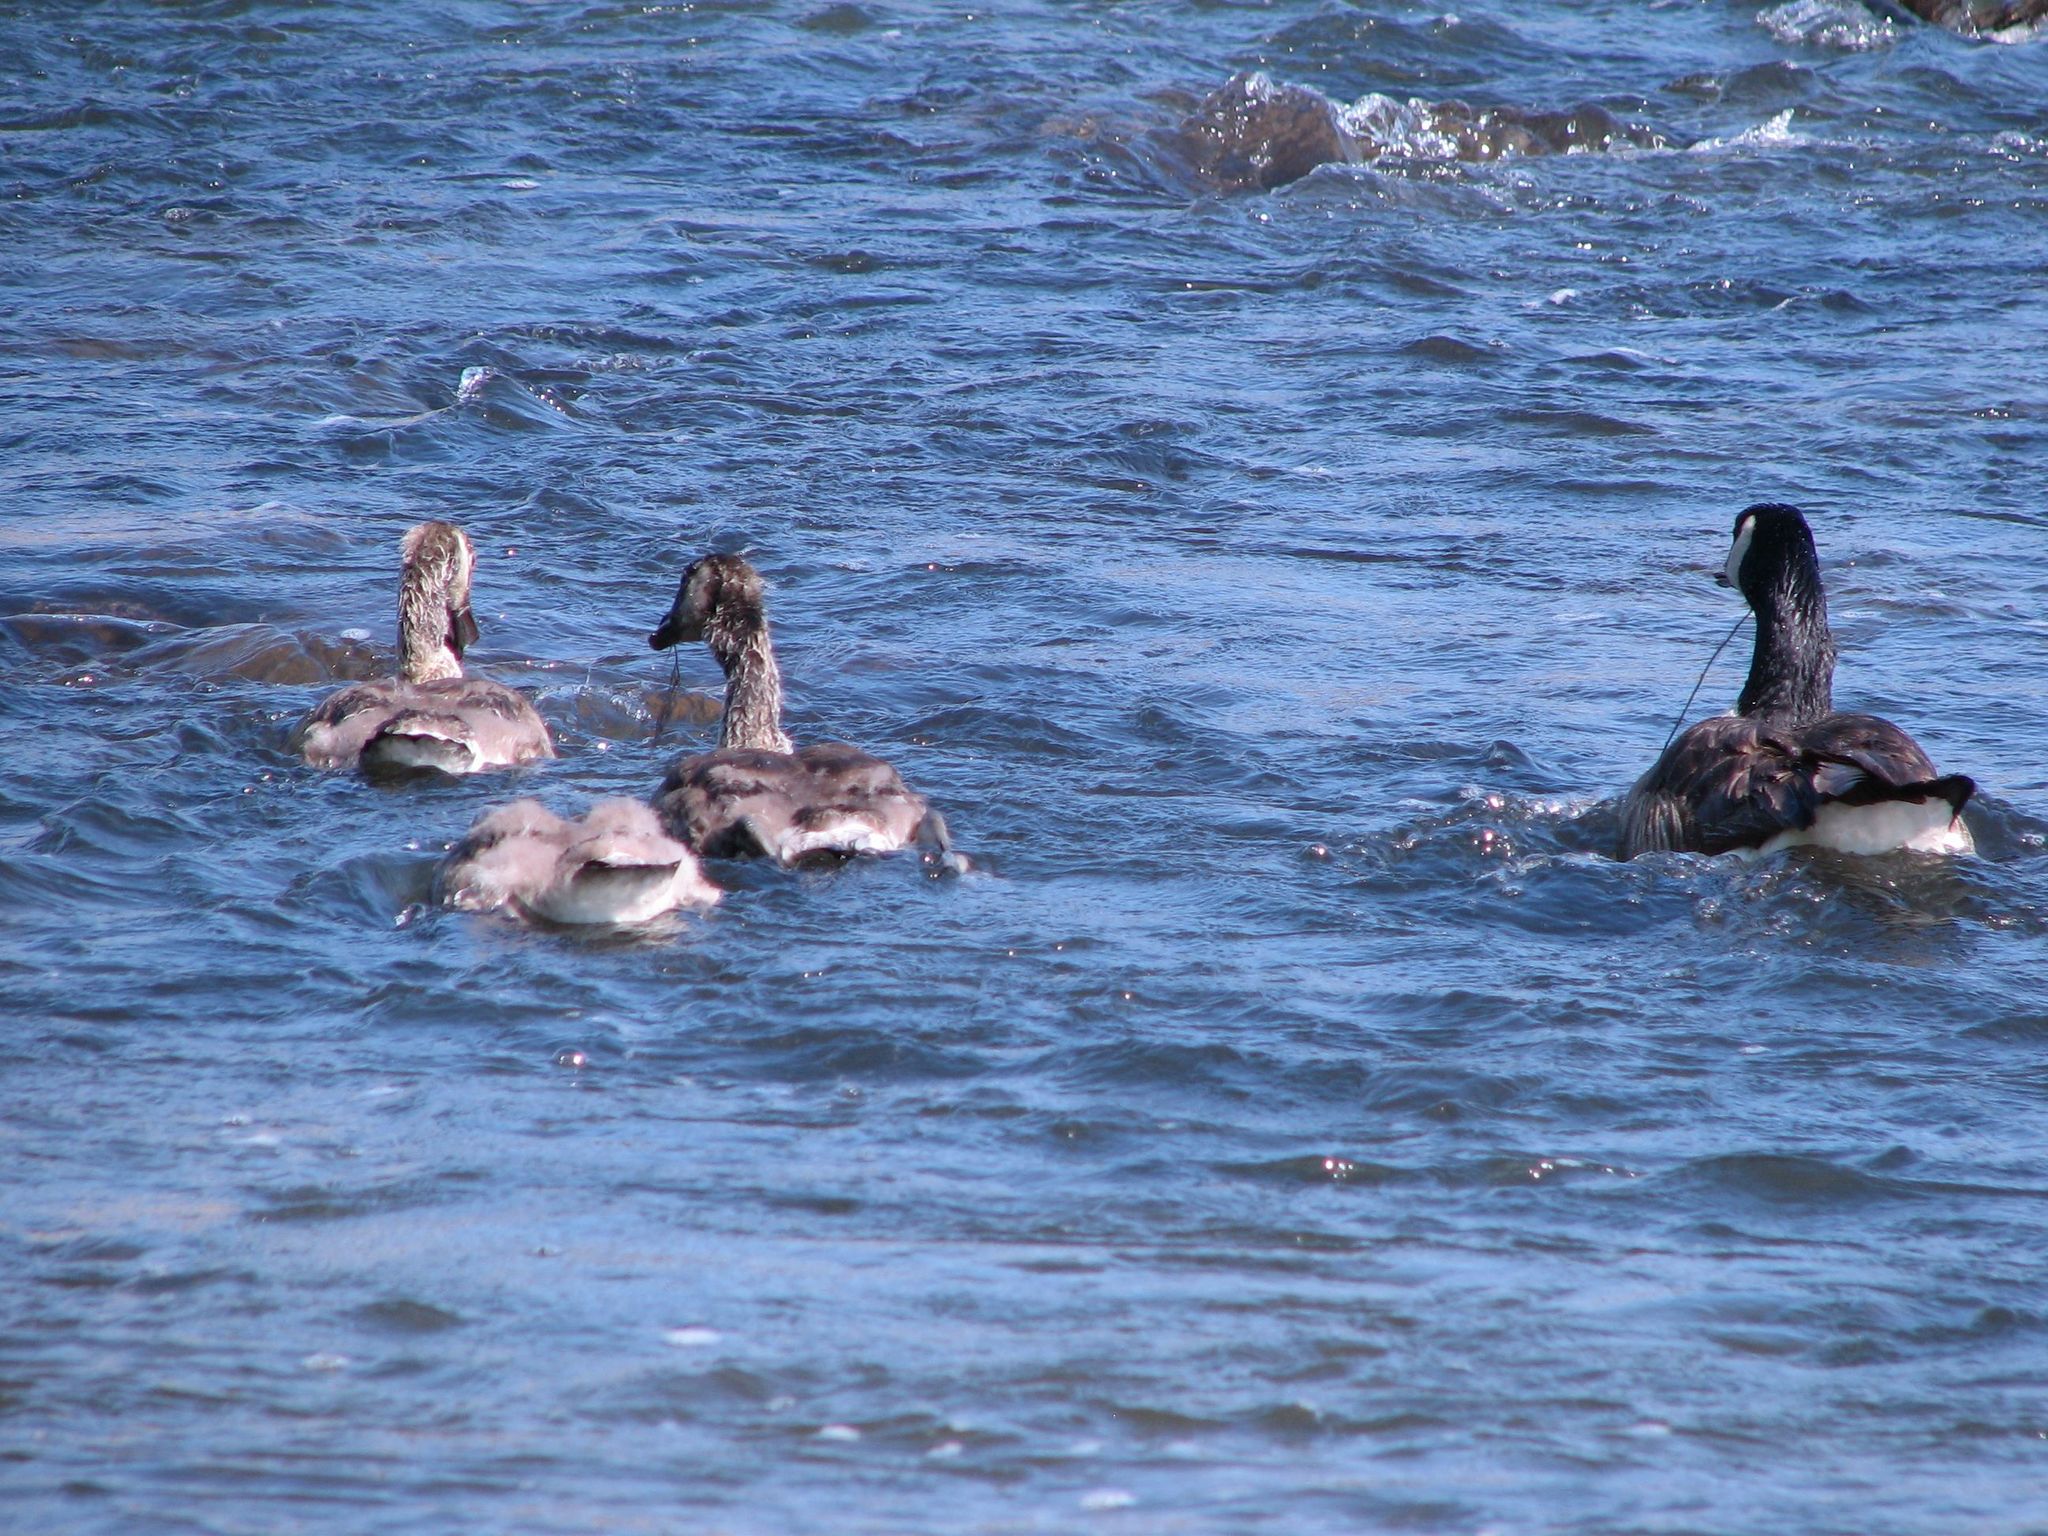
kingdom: Animalia
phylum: Chordata
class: Aves
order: Anseriformes
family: Anatidae
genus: Branta
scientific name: Branta canadensis
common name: Canada goose
